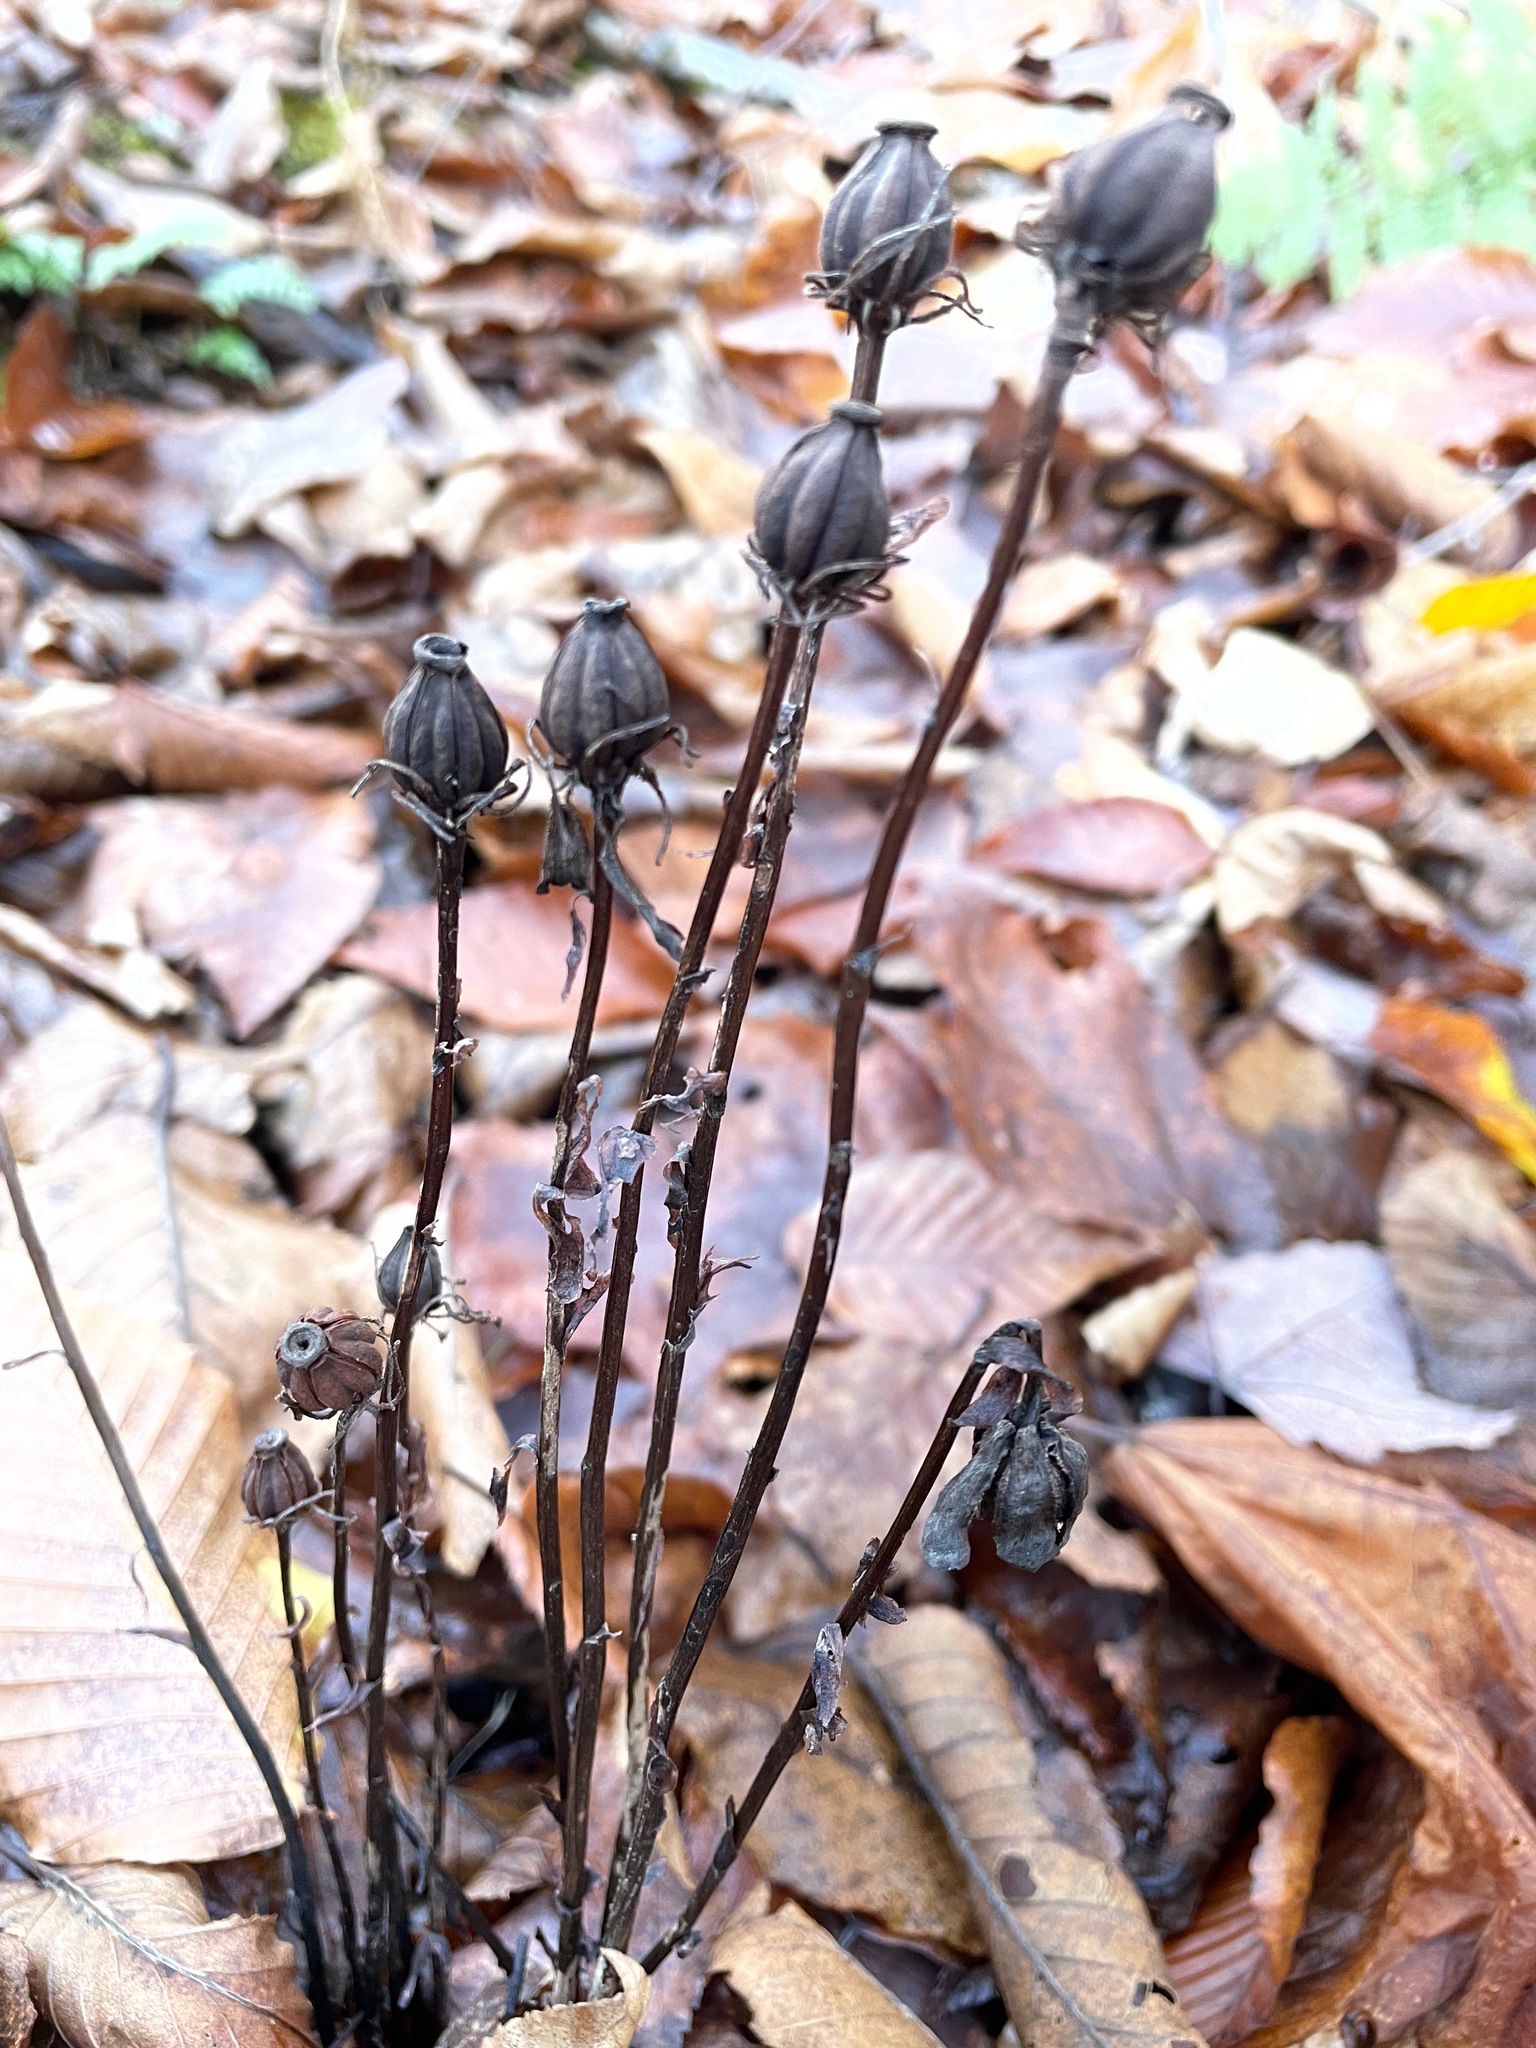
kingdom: Plantae
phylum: Tracheophyta
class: Magnoliopsida
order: Ericales
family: Ericaceae
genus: Monotropa
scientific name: Monotropa uniflora
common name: Convulsion root
